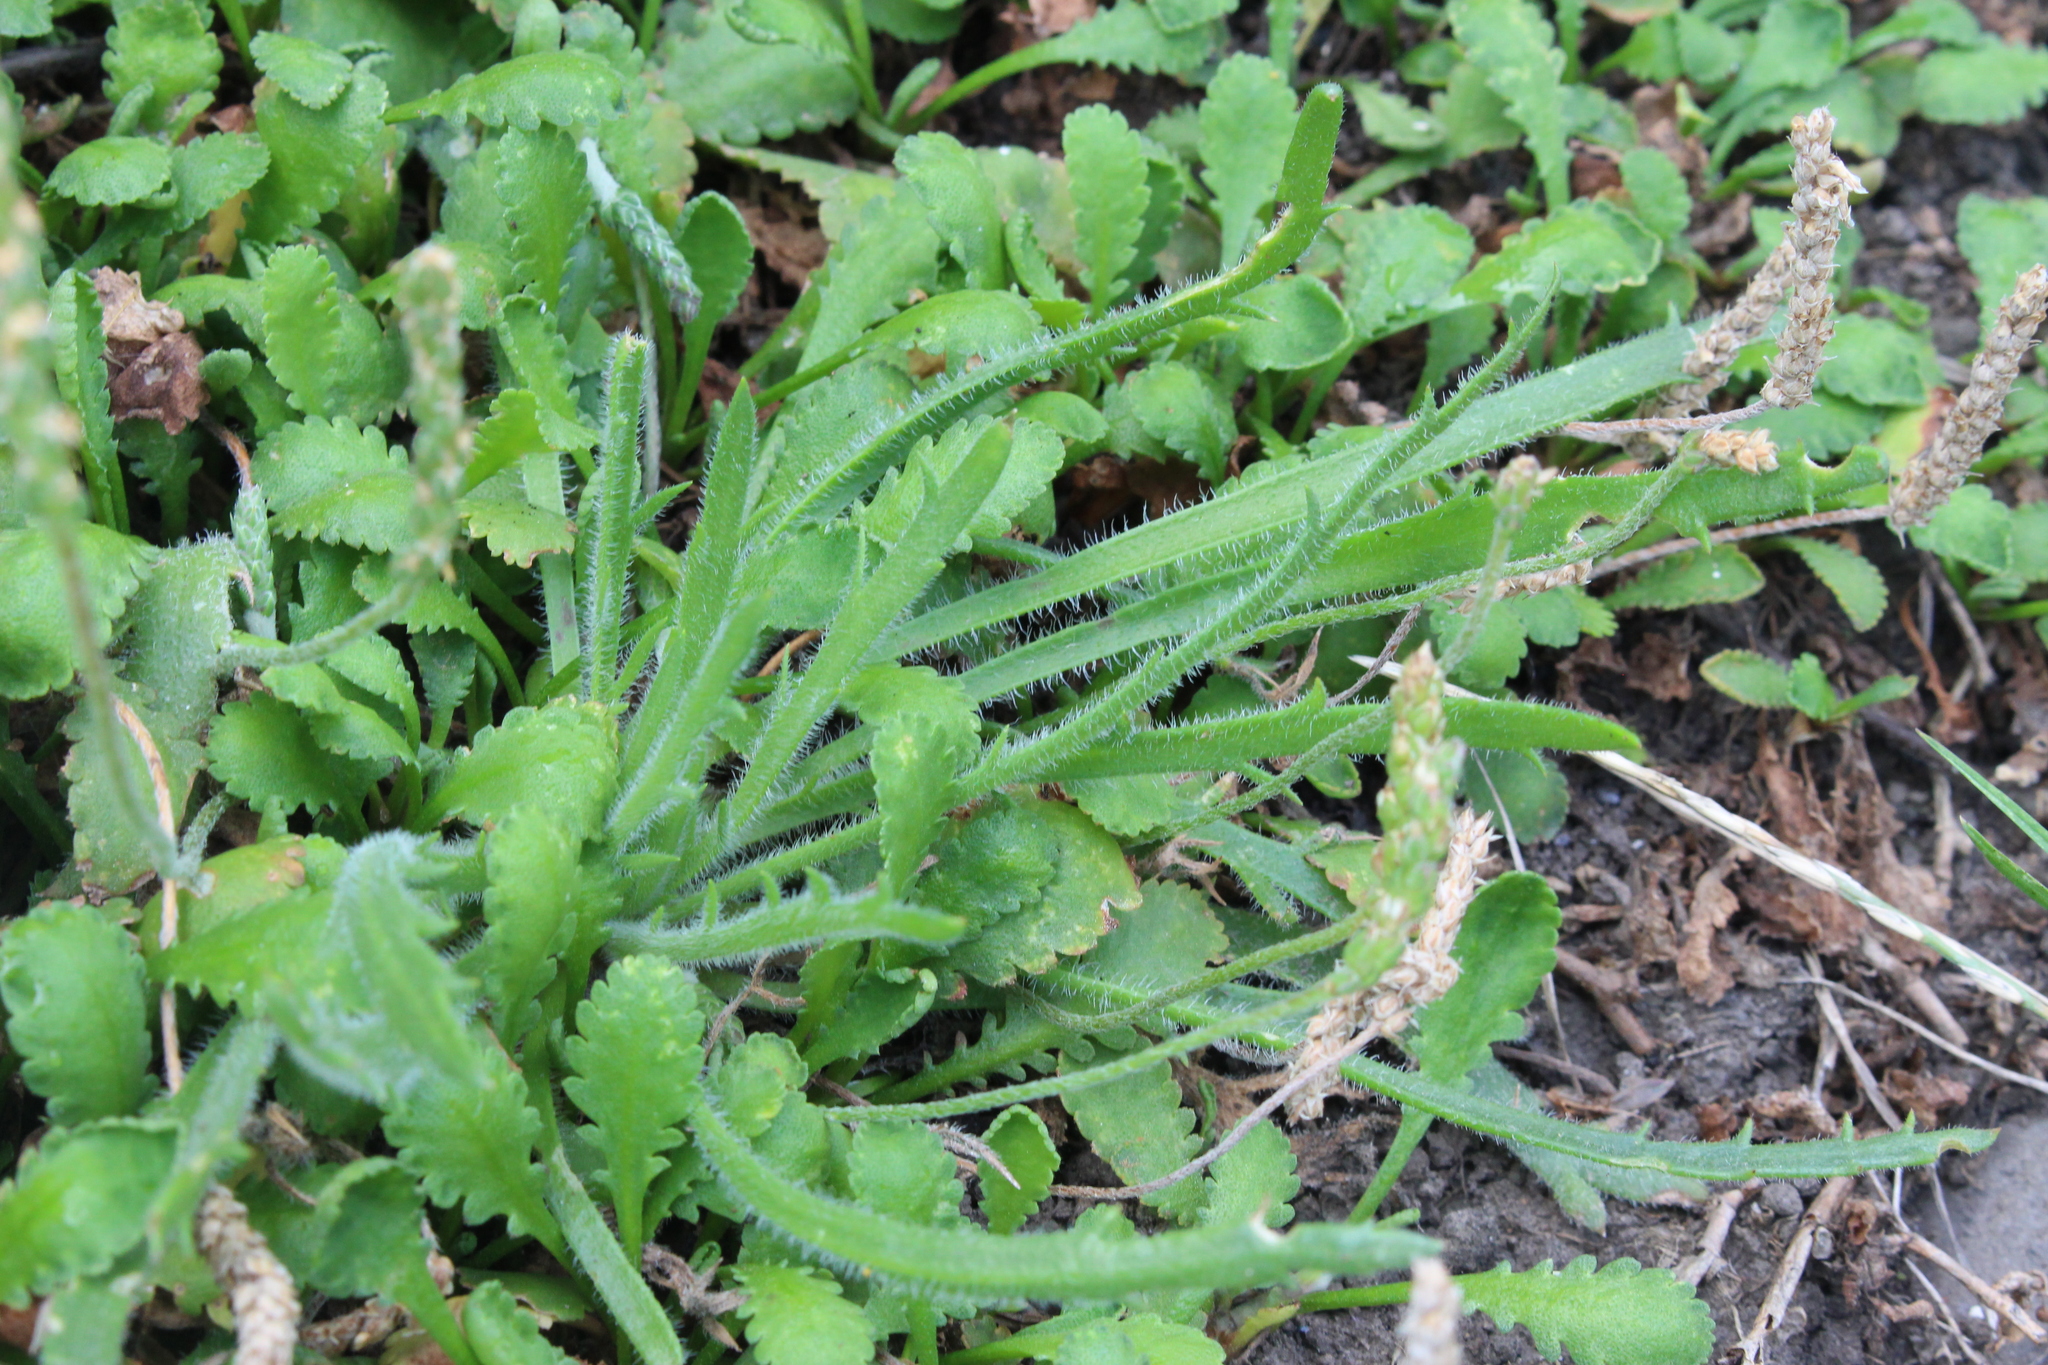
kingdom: Plantae
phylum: Tracheophyta
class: Magnoliopsida
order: Lamiales
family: Plantaginaceae
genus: Plantago
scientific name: Plantago coronopus
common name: Buck's-horn plantain
